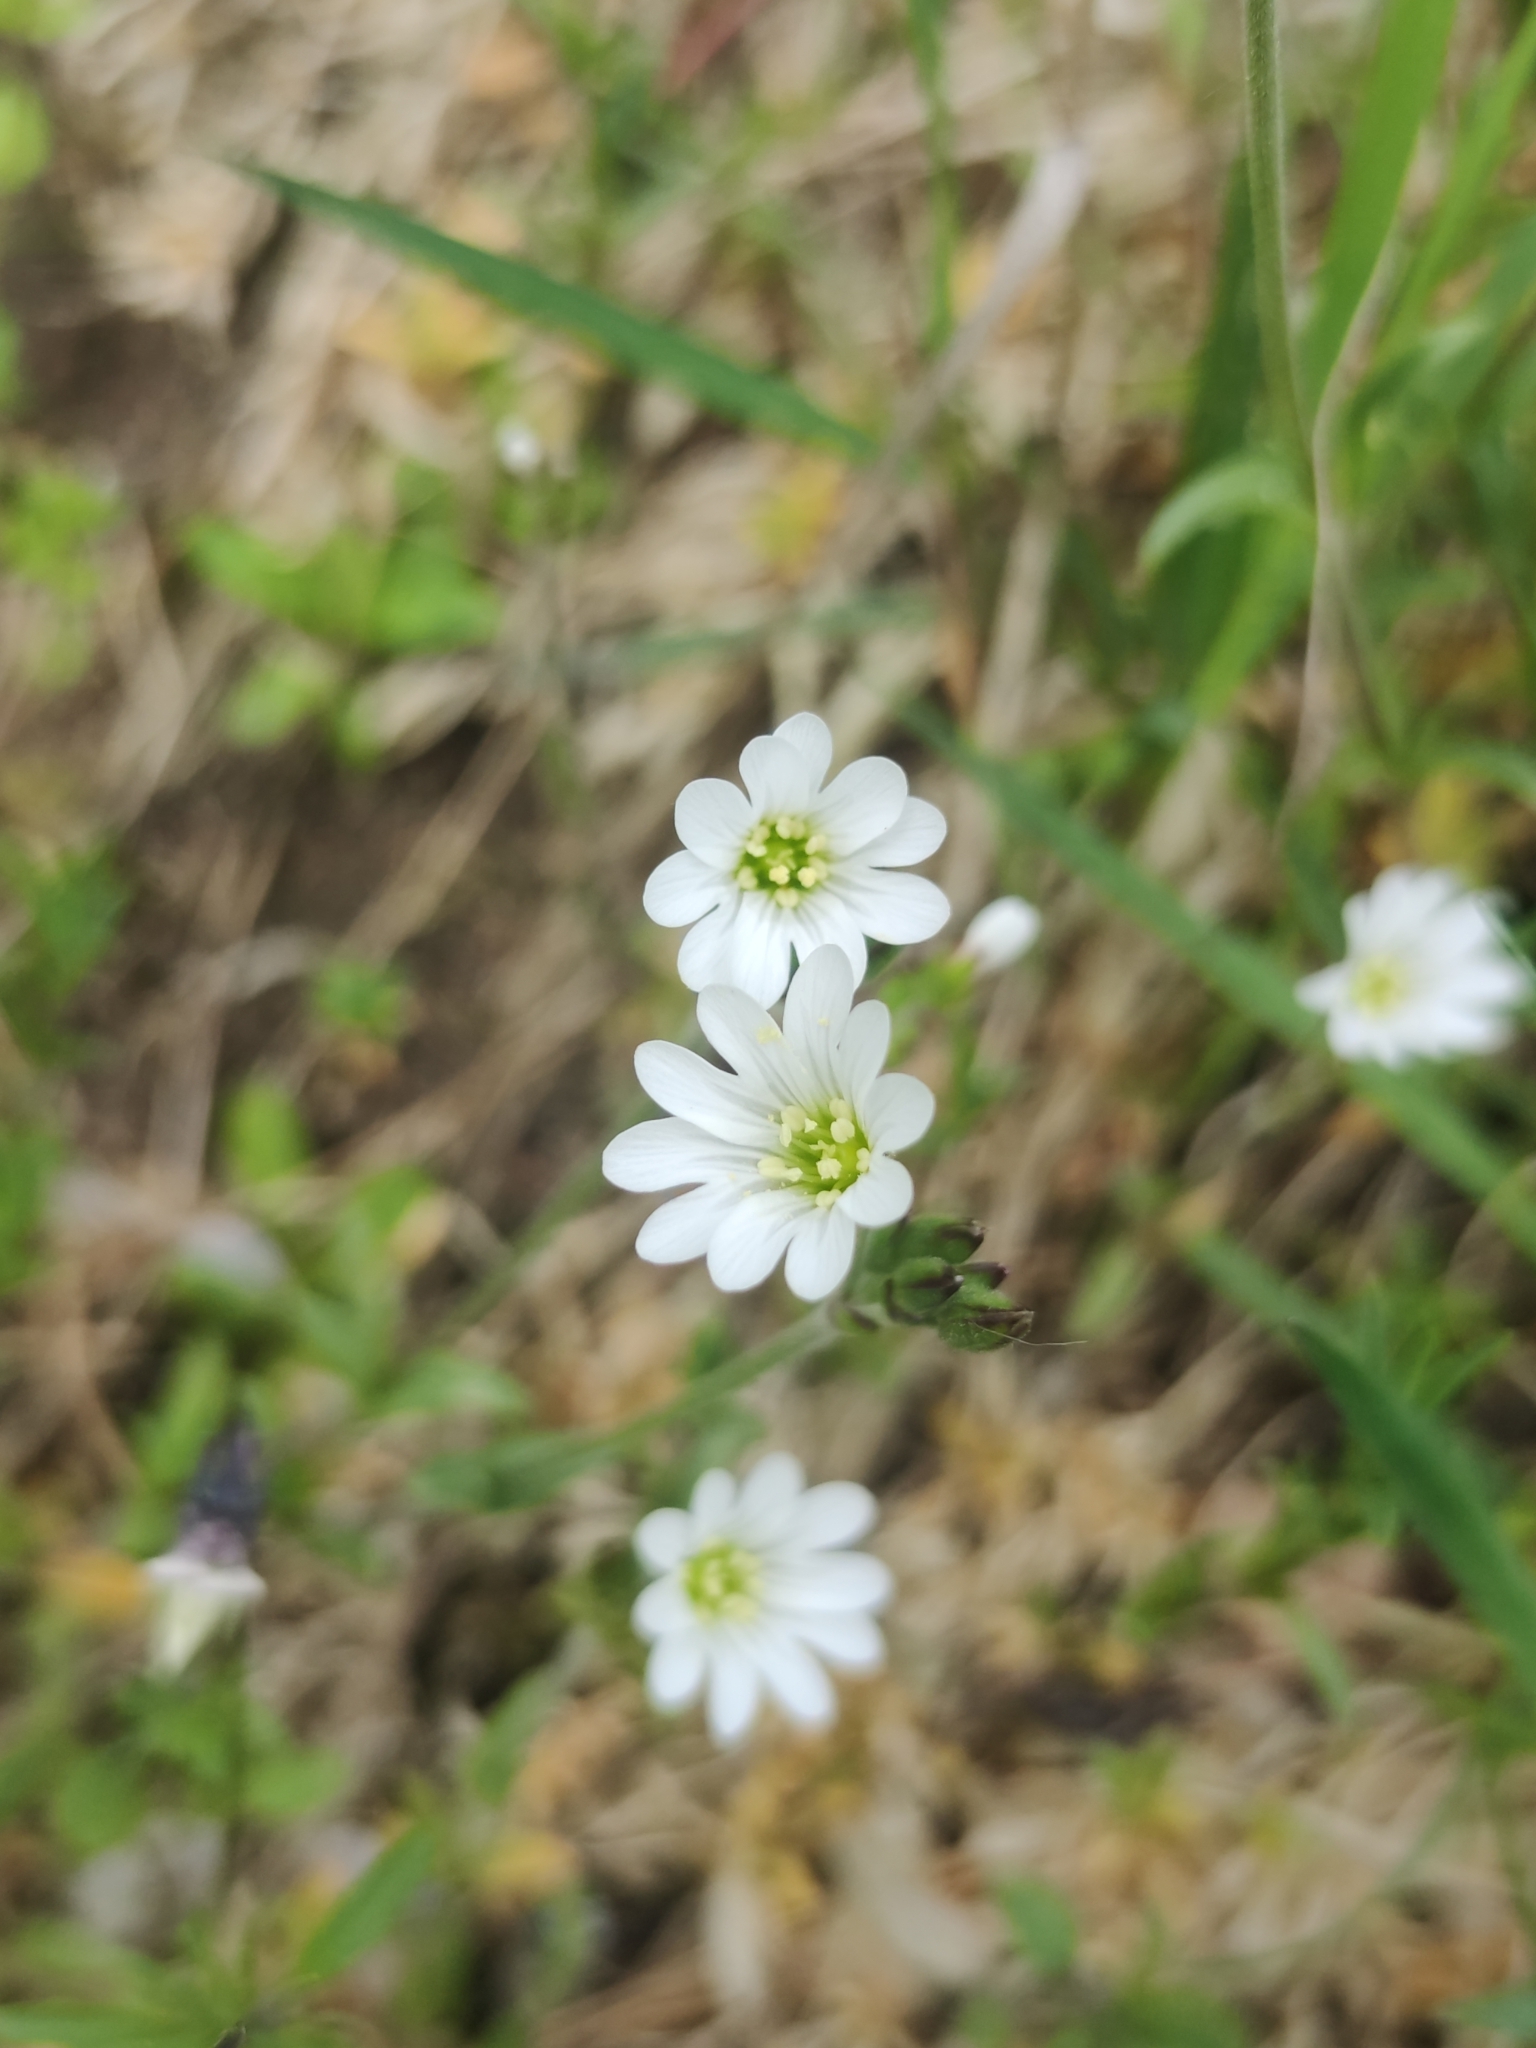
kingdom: Plantae
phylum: Tracheophyta
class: Magnoliopsida
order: Caryophyllales
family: Caryophyllaceae
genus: Cerastium
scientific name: Cerastium arvense
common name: Field mouse-ear
